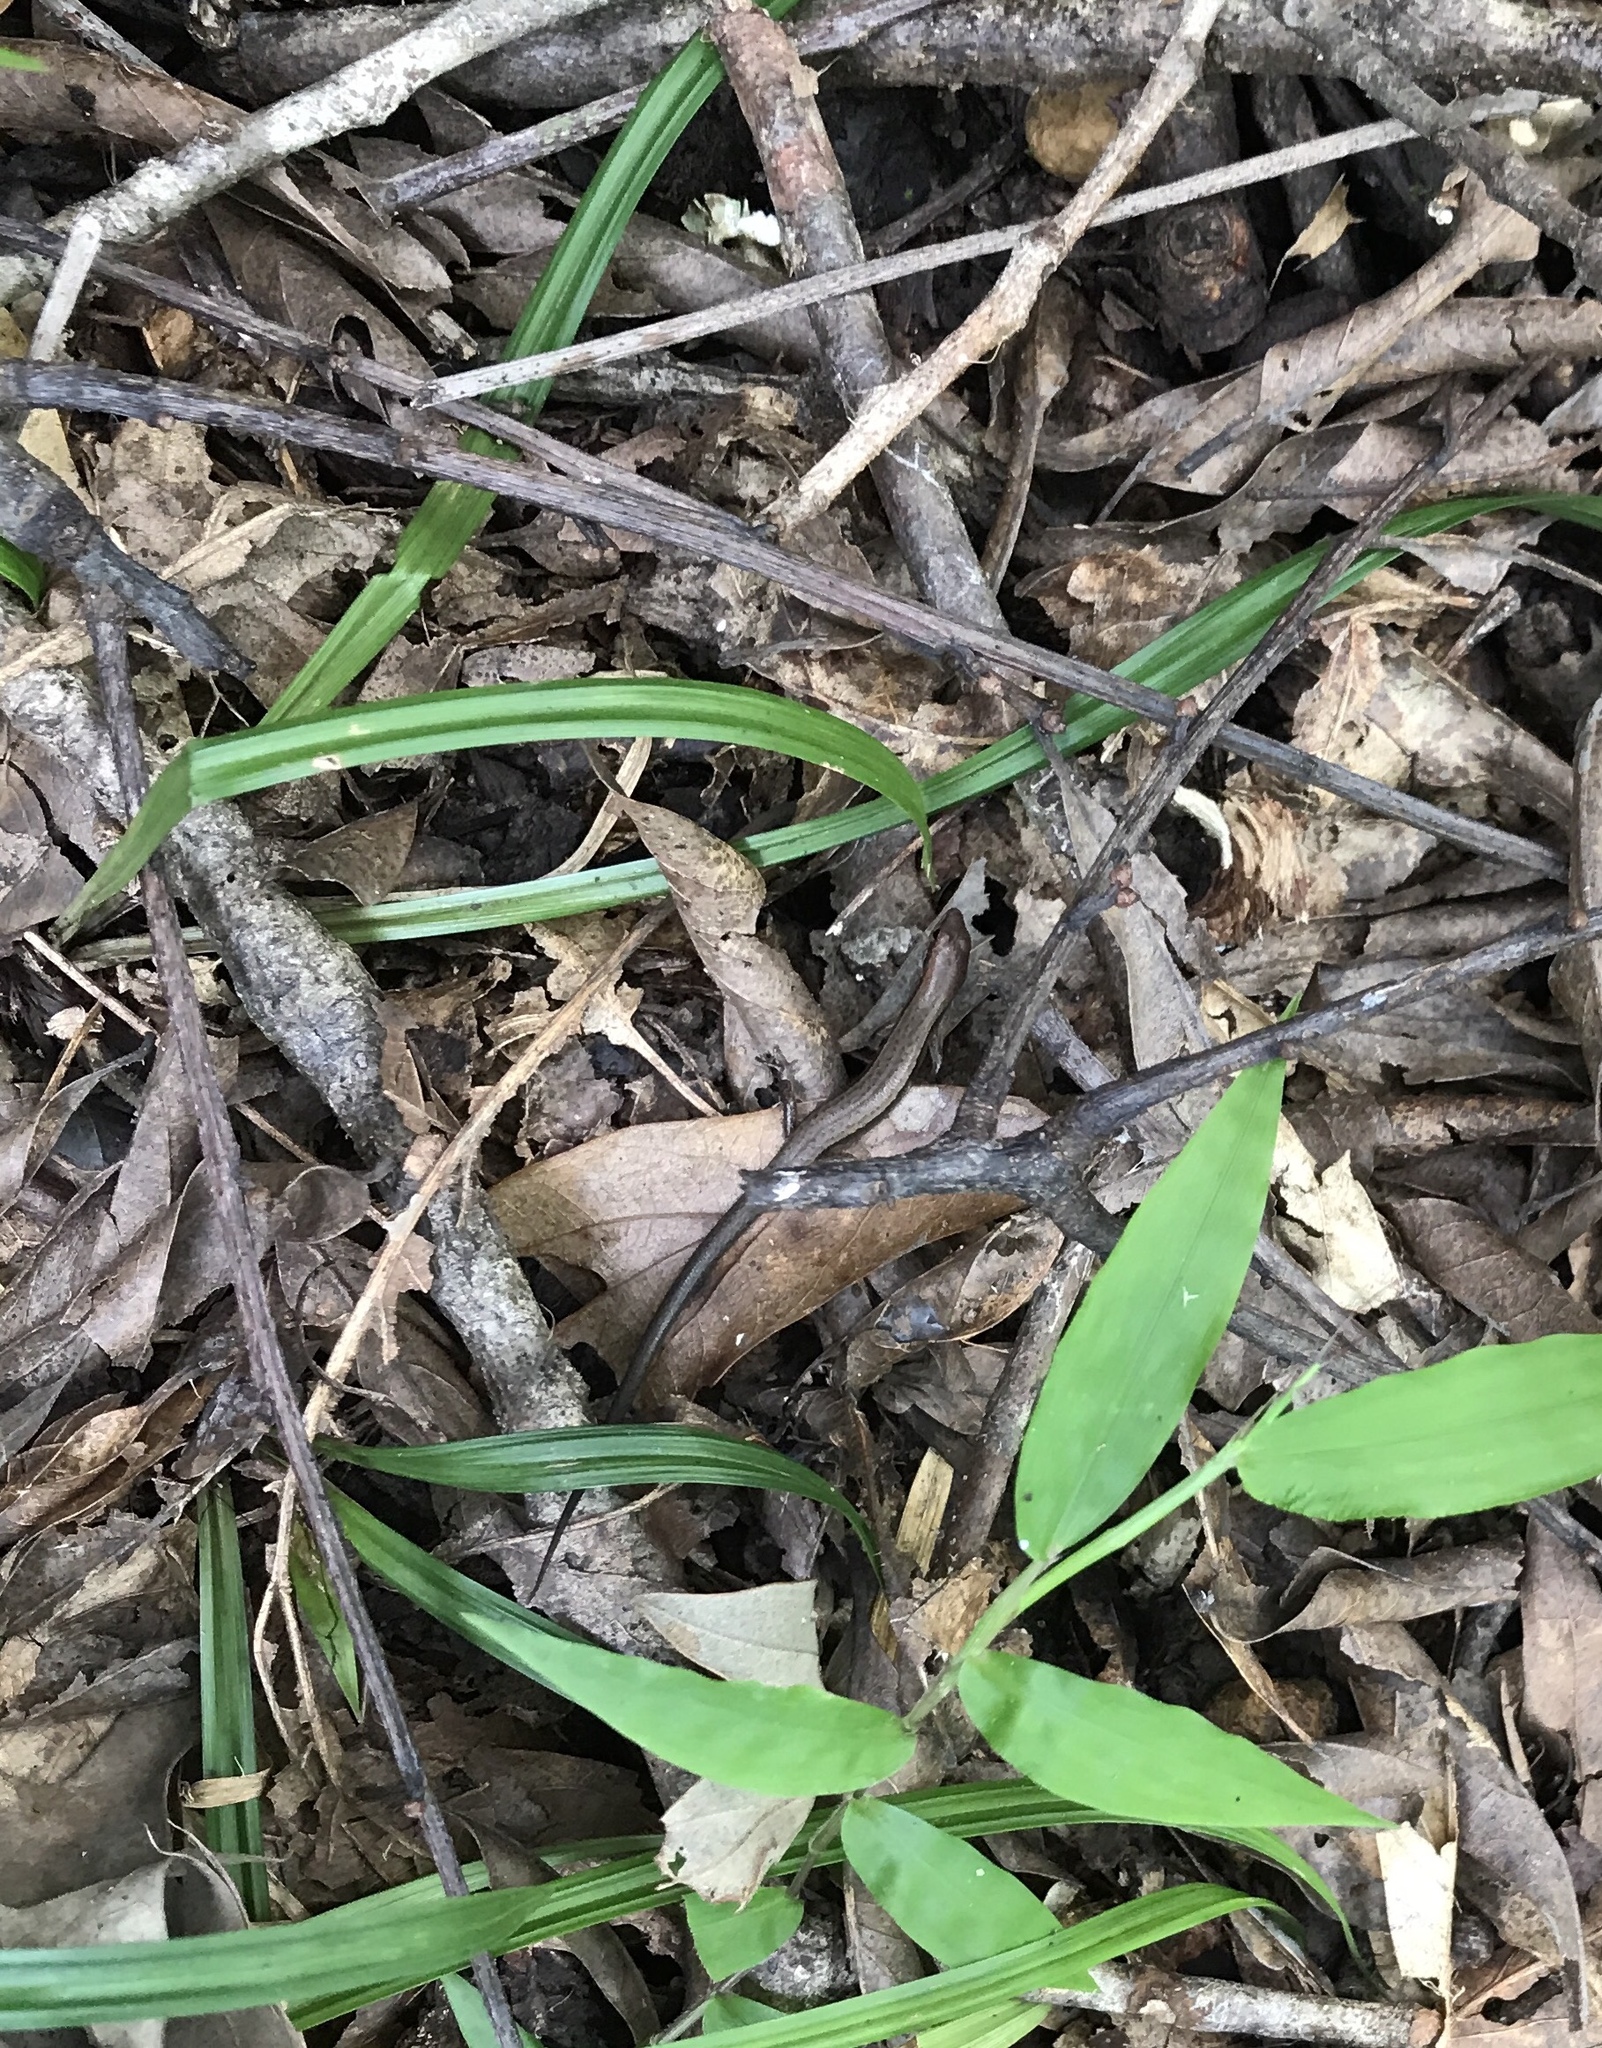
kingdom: Animalia
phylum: Chordata
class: Squamata
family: Scincidae
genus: Scincella
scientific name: Scincella lateralis
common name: Ground skink
